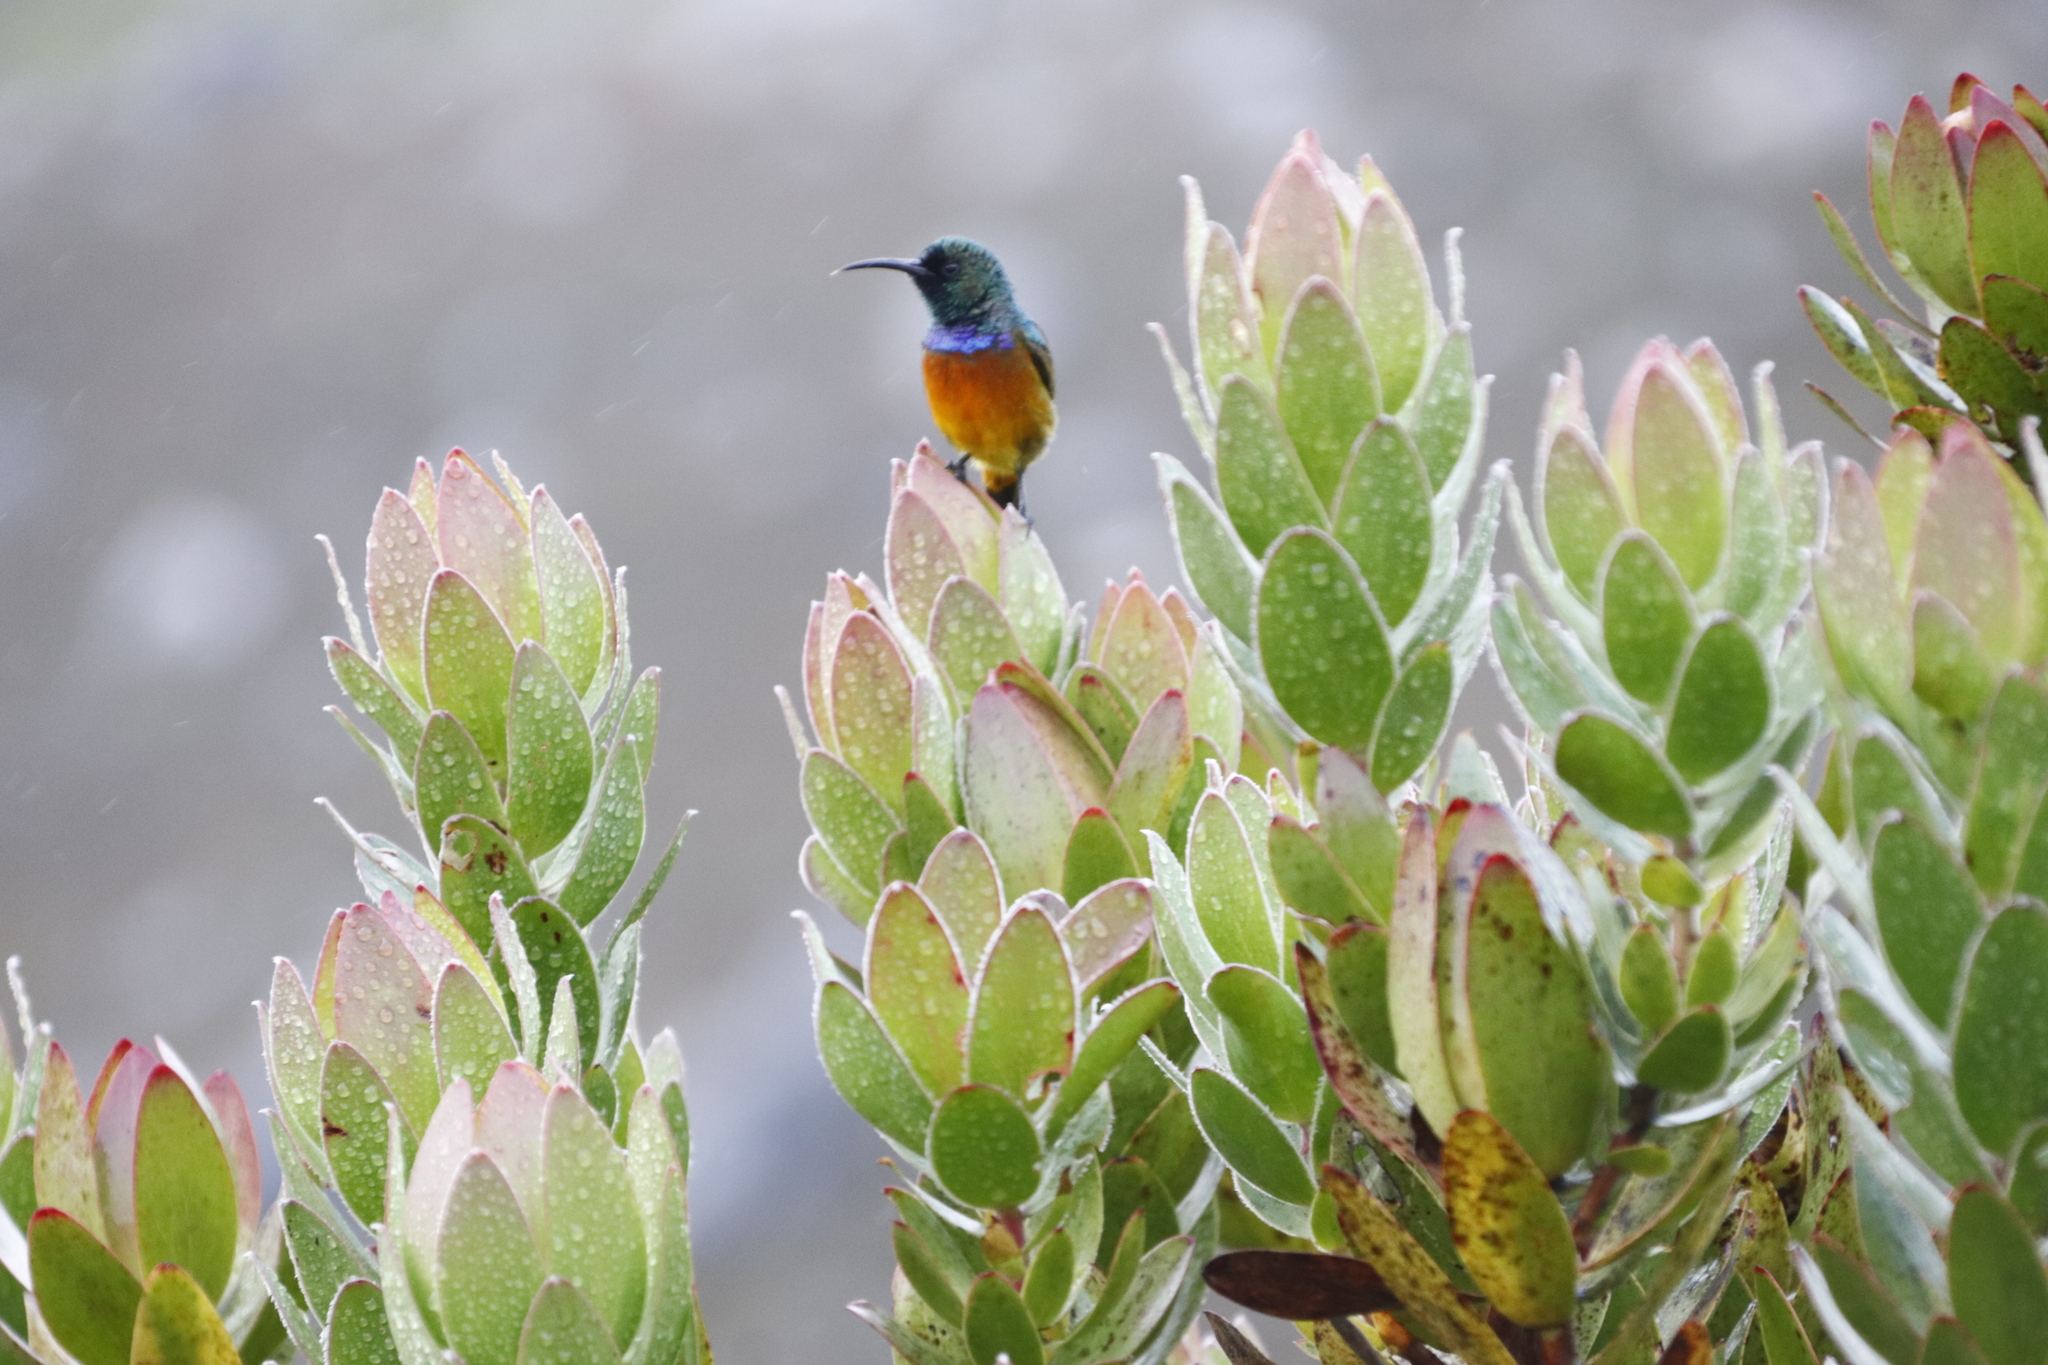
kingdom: Animalia
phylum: Chordata
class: Aves
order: Passeriformes
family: Nectariniidae
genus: Anthobaphes
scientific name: Anthobaphes violacea
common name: Orange-breasted sunbird
